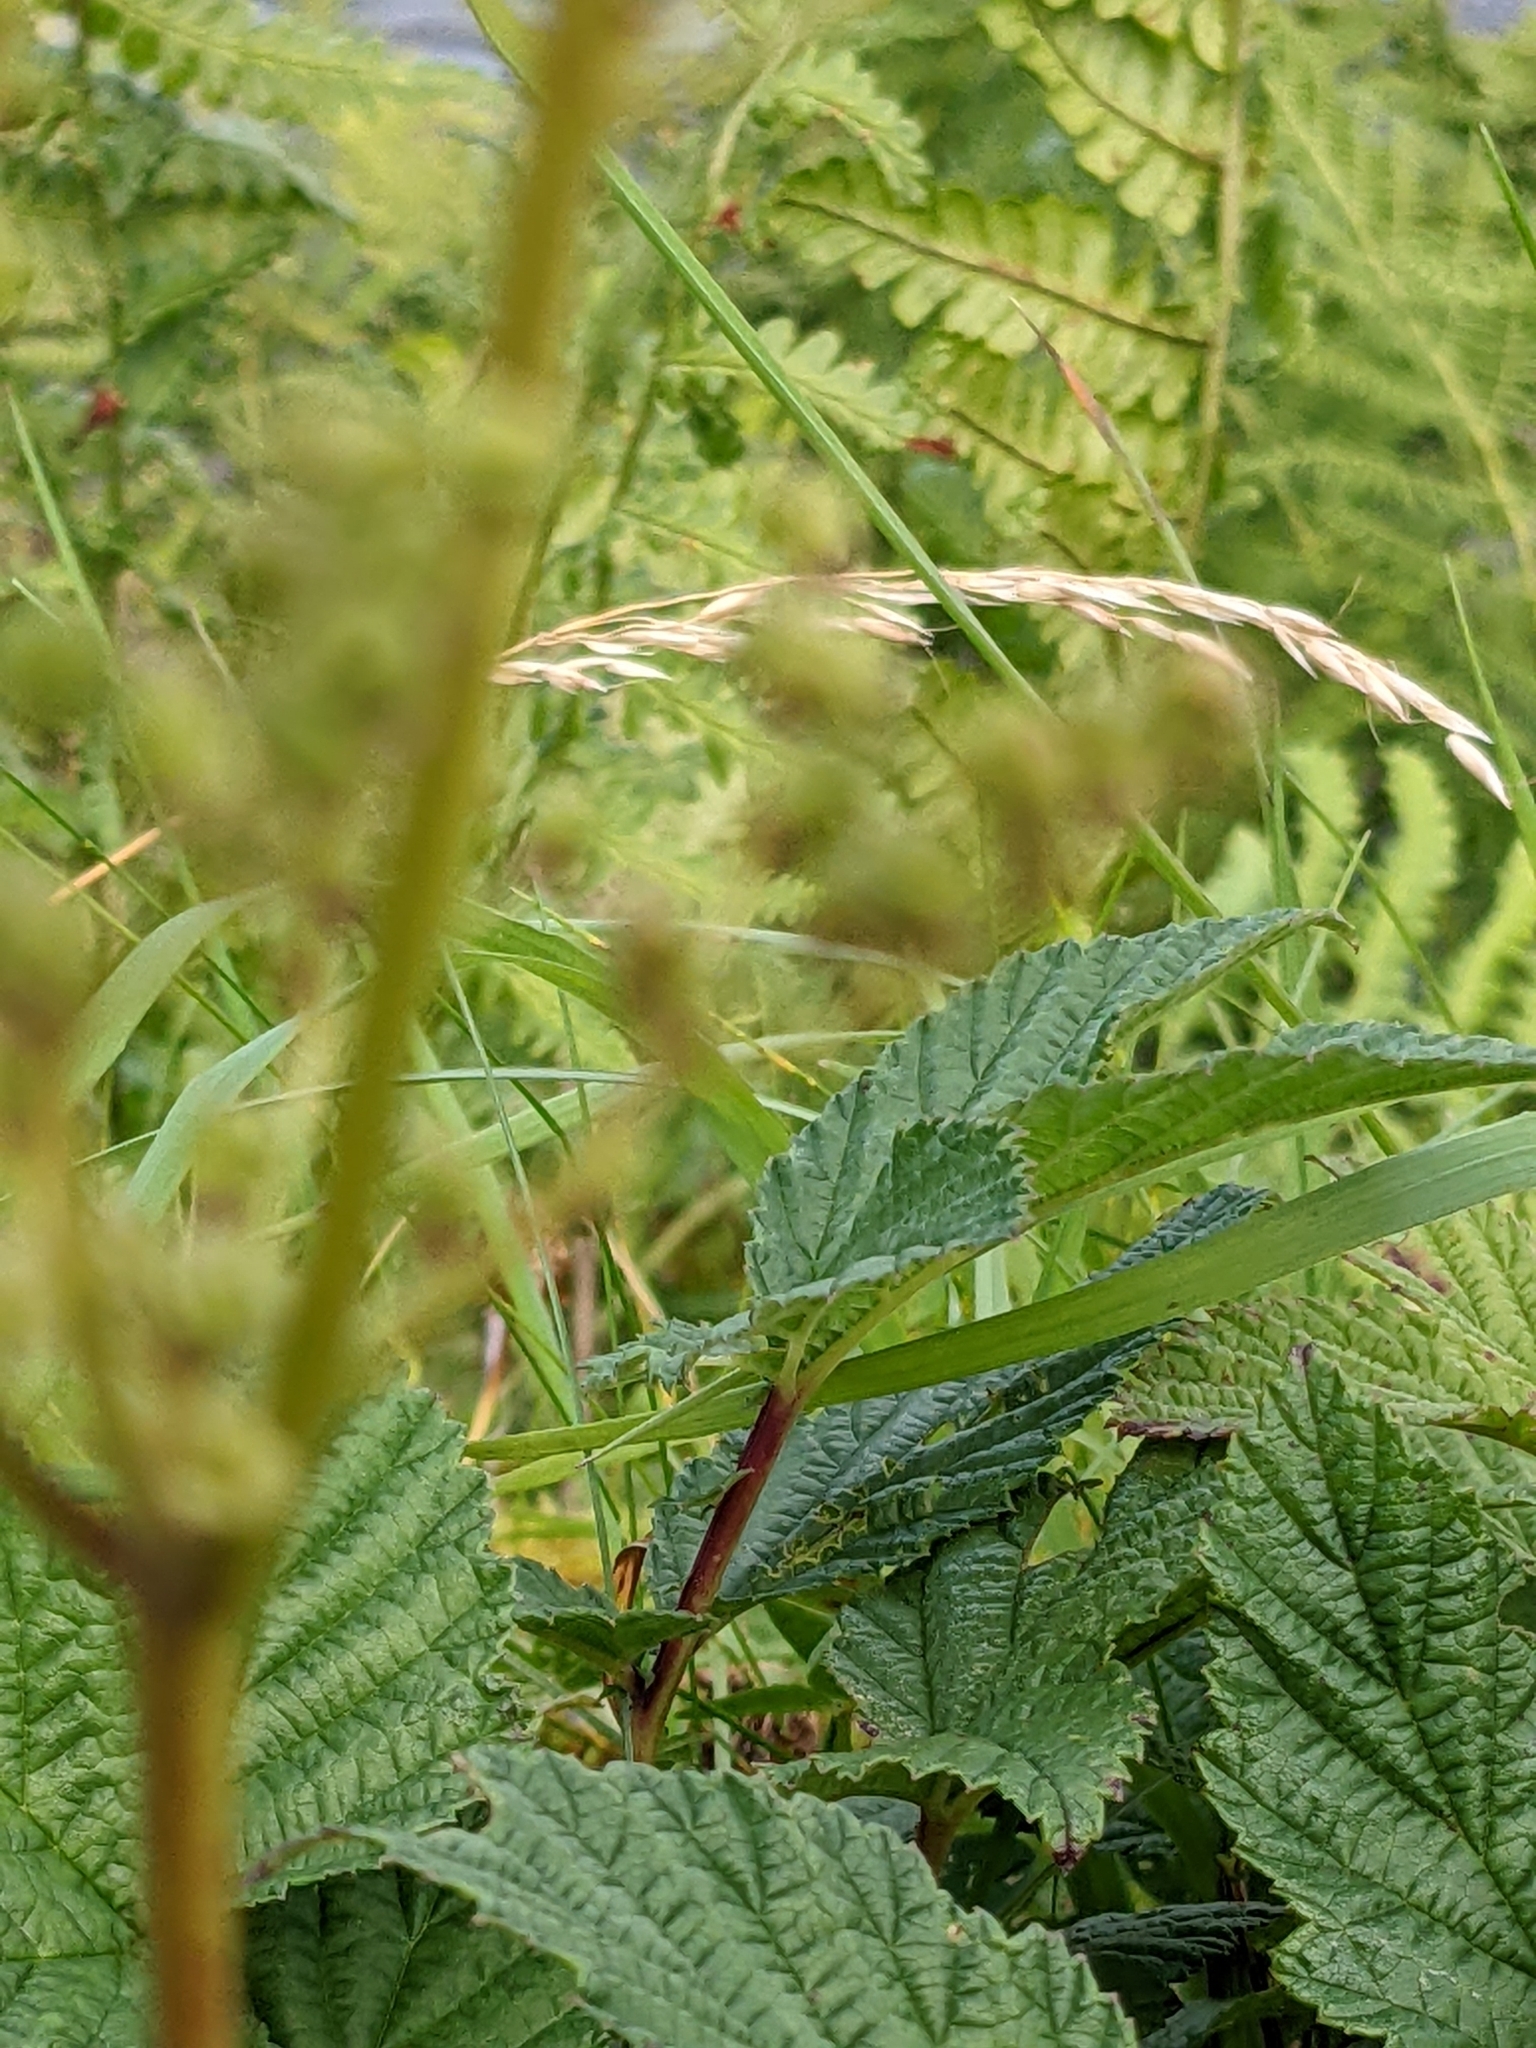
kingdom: Plantae
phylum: Tracheophyta
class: Magnoliopsida
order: Rosales
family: Rosaceae
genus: Filipendula
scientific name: Filipendula ulmaria
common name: Meadowsweet
